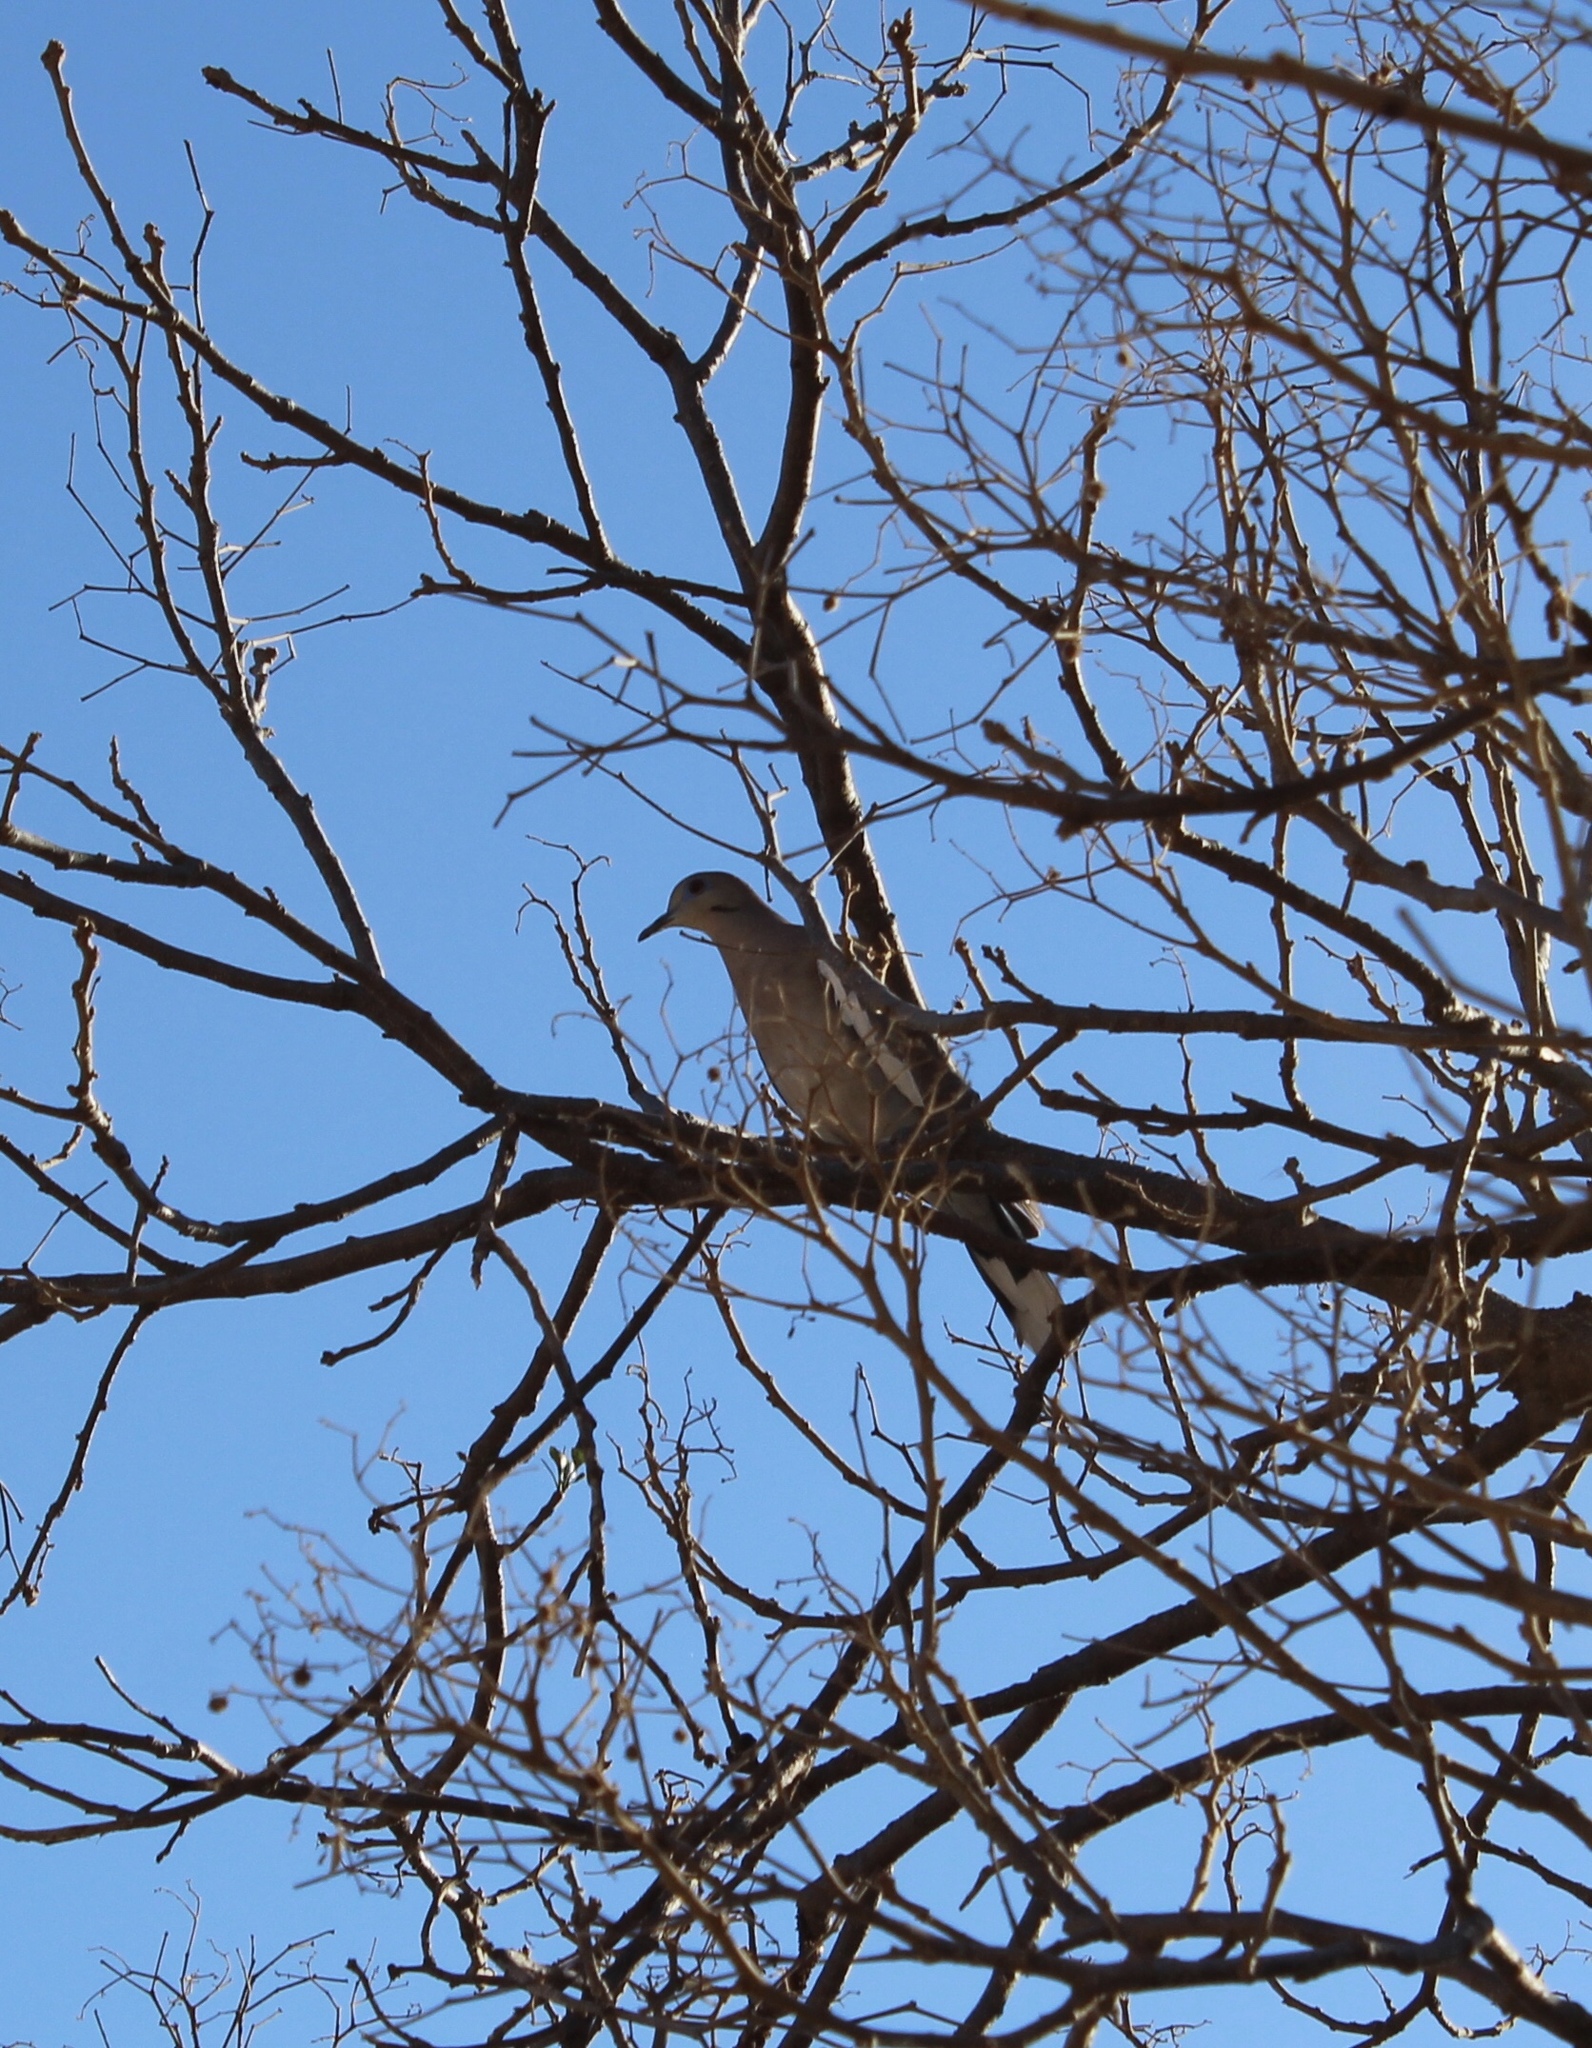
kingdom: Animalia
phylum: Chordata
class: Aves
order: Columbiformes
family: Columbidae
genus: Zenaida
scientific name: Zenaida asiatica
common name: White-winged dove
